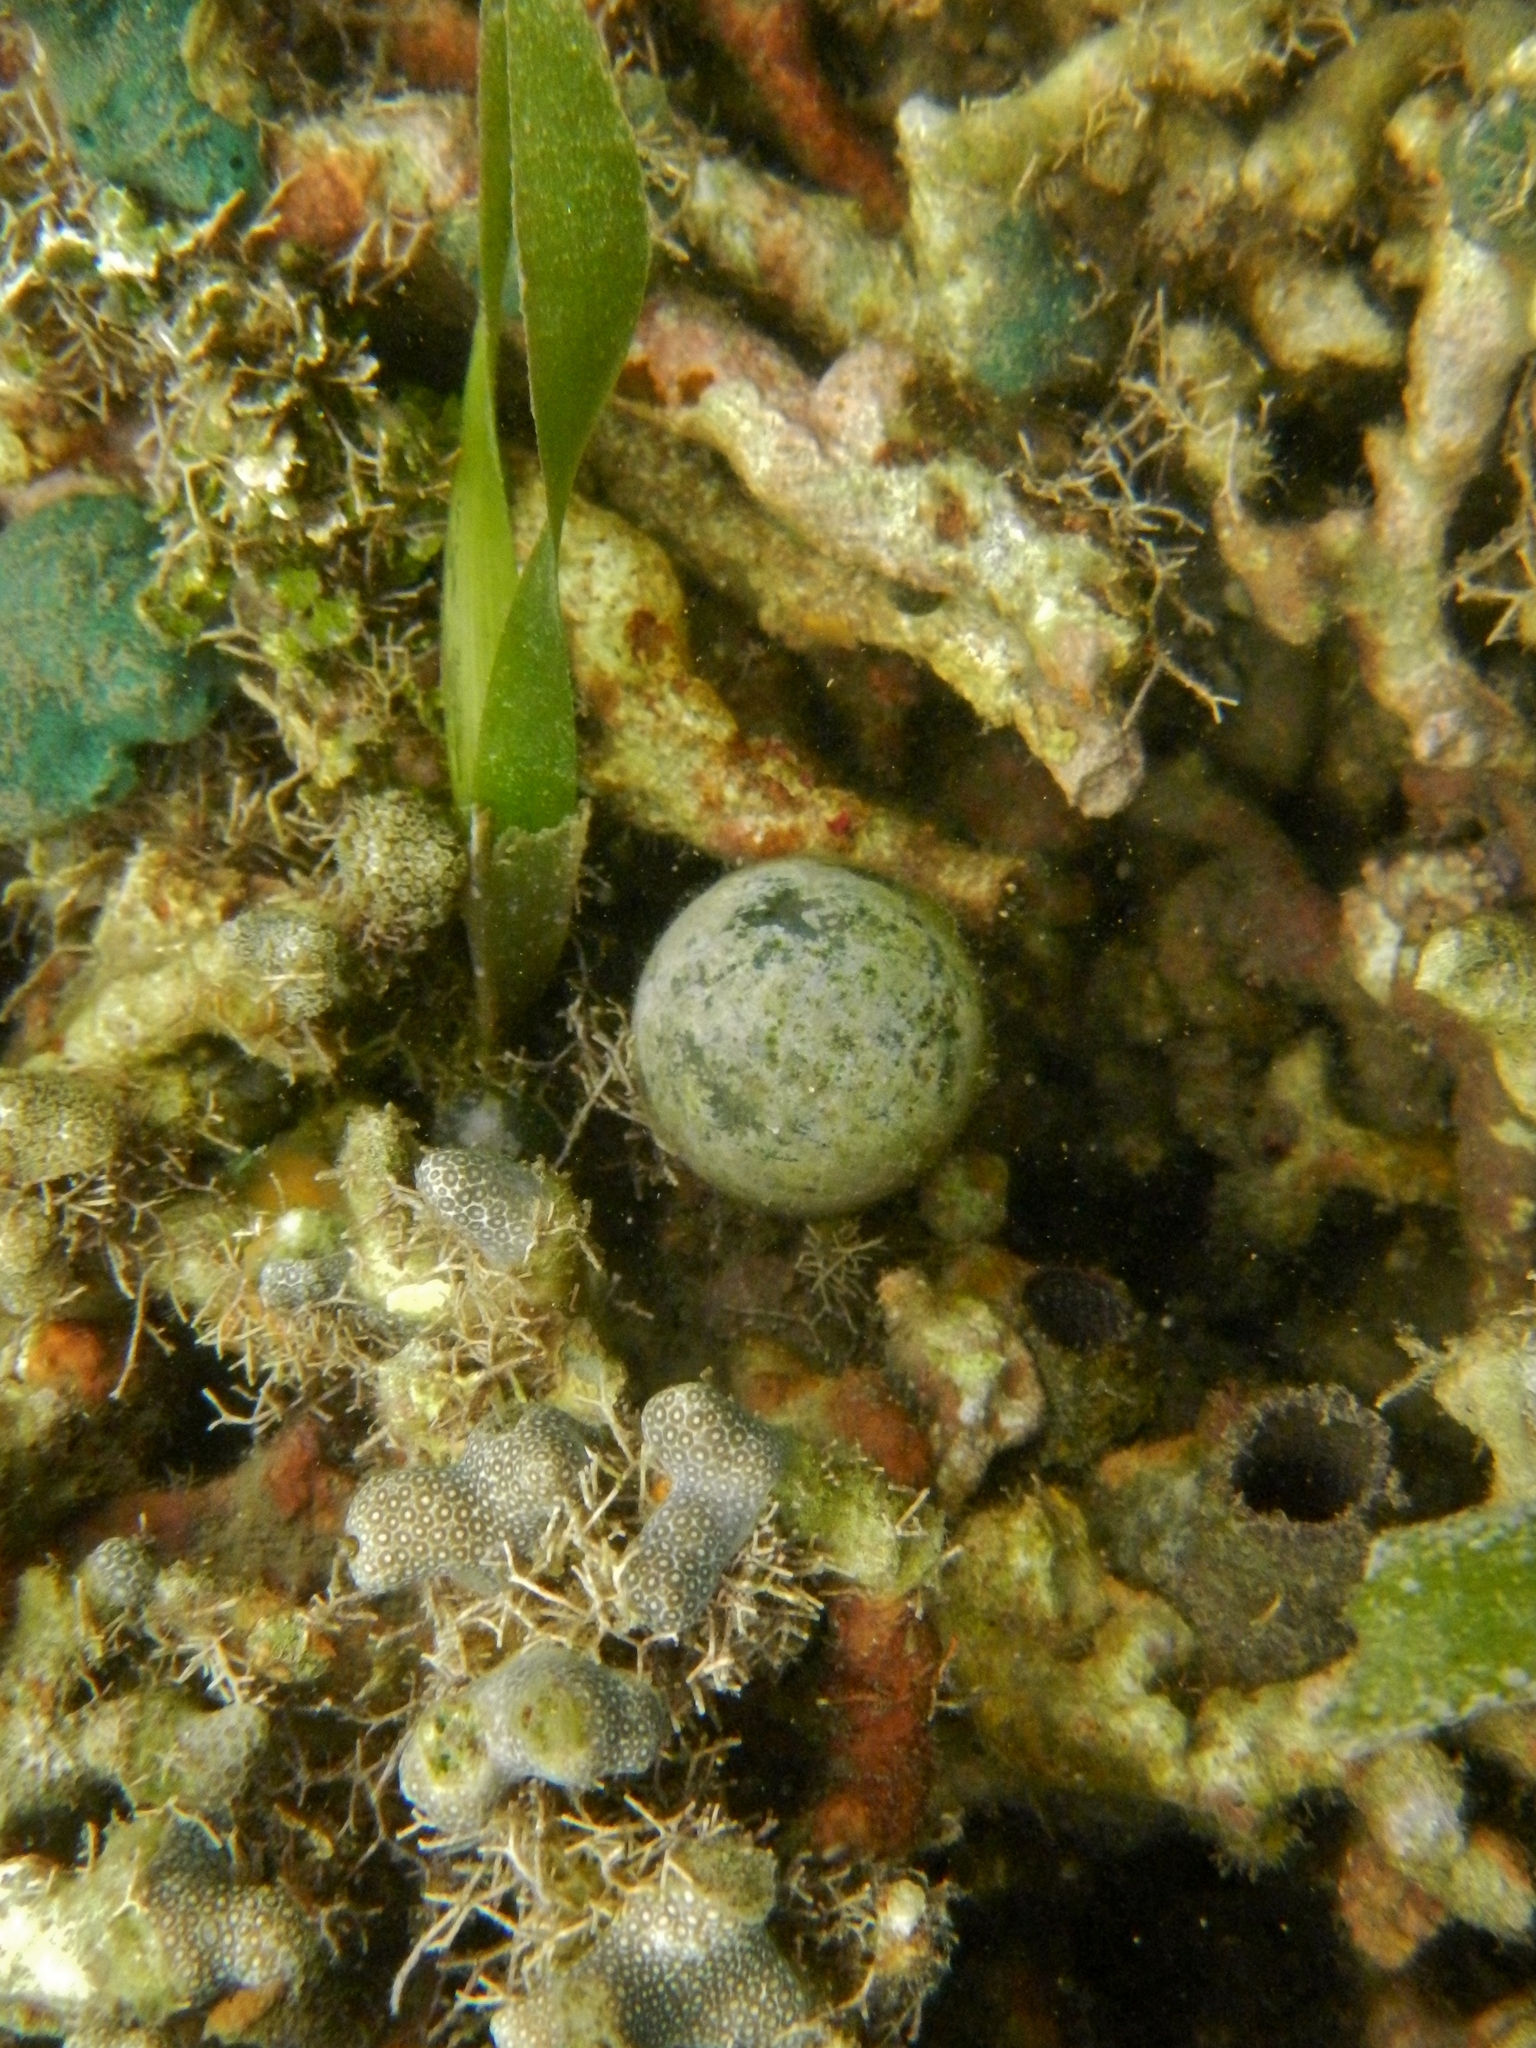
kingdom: Plantae
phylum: Chlorophyta
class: Ulvophyceae
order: Siphonocladales
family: Valoniaceae
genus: Valonia
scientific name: Valonia ventricosa
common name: Sea pearl
